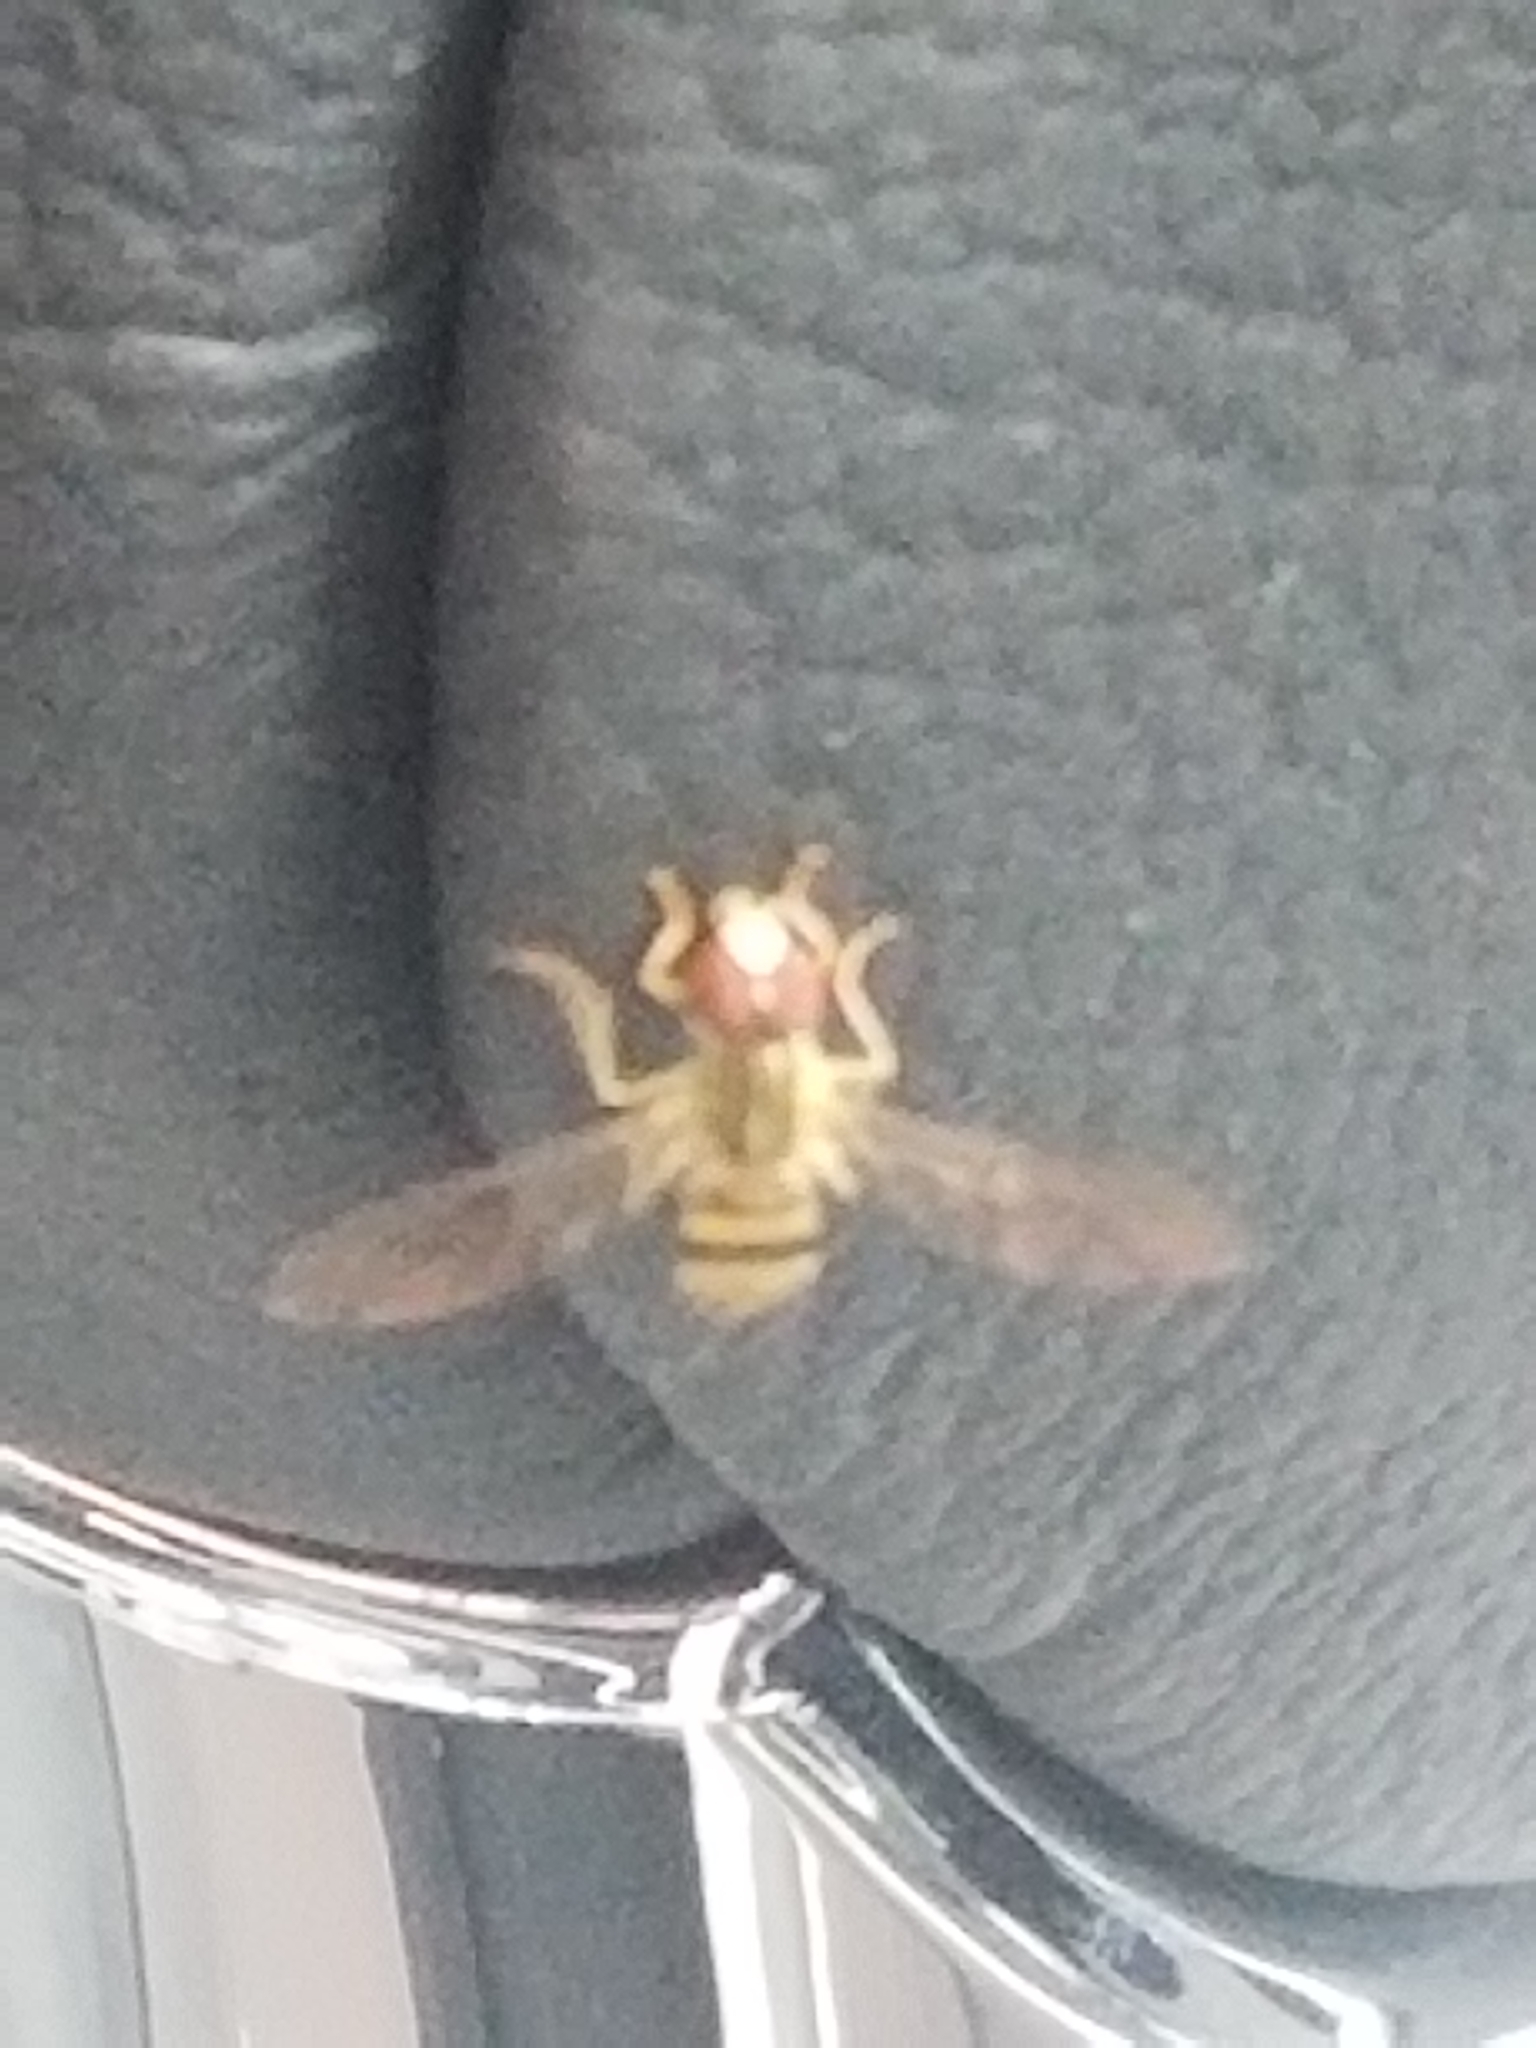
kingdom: Animalia
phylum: Arthropoda
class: Insecta
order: Diptera
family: Syrphidae
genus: Toxomerus
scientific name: Toxomerus politus
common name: Maize calligrapher
